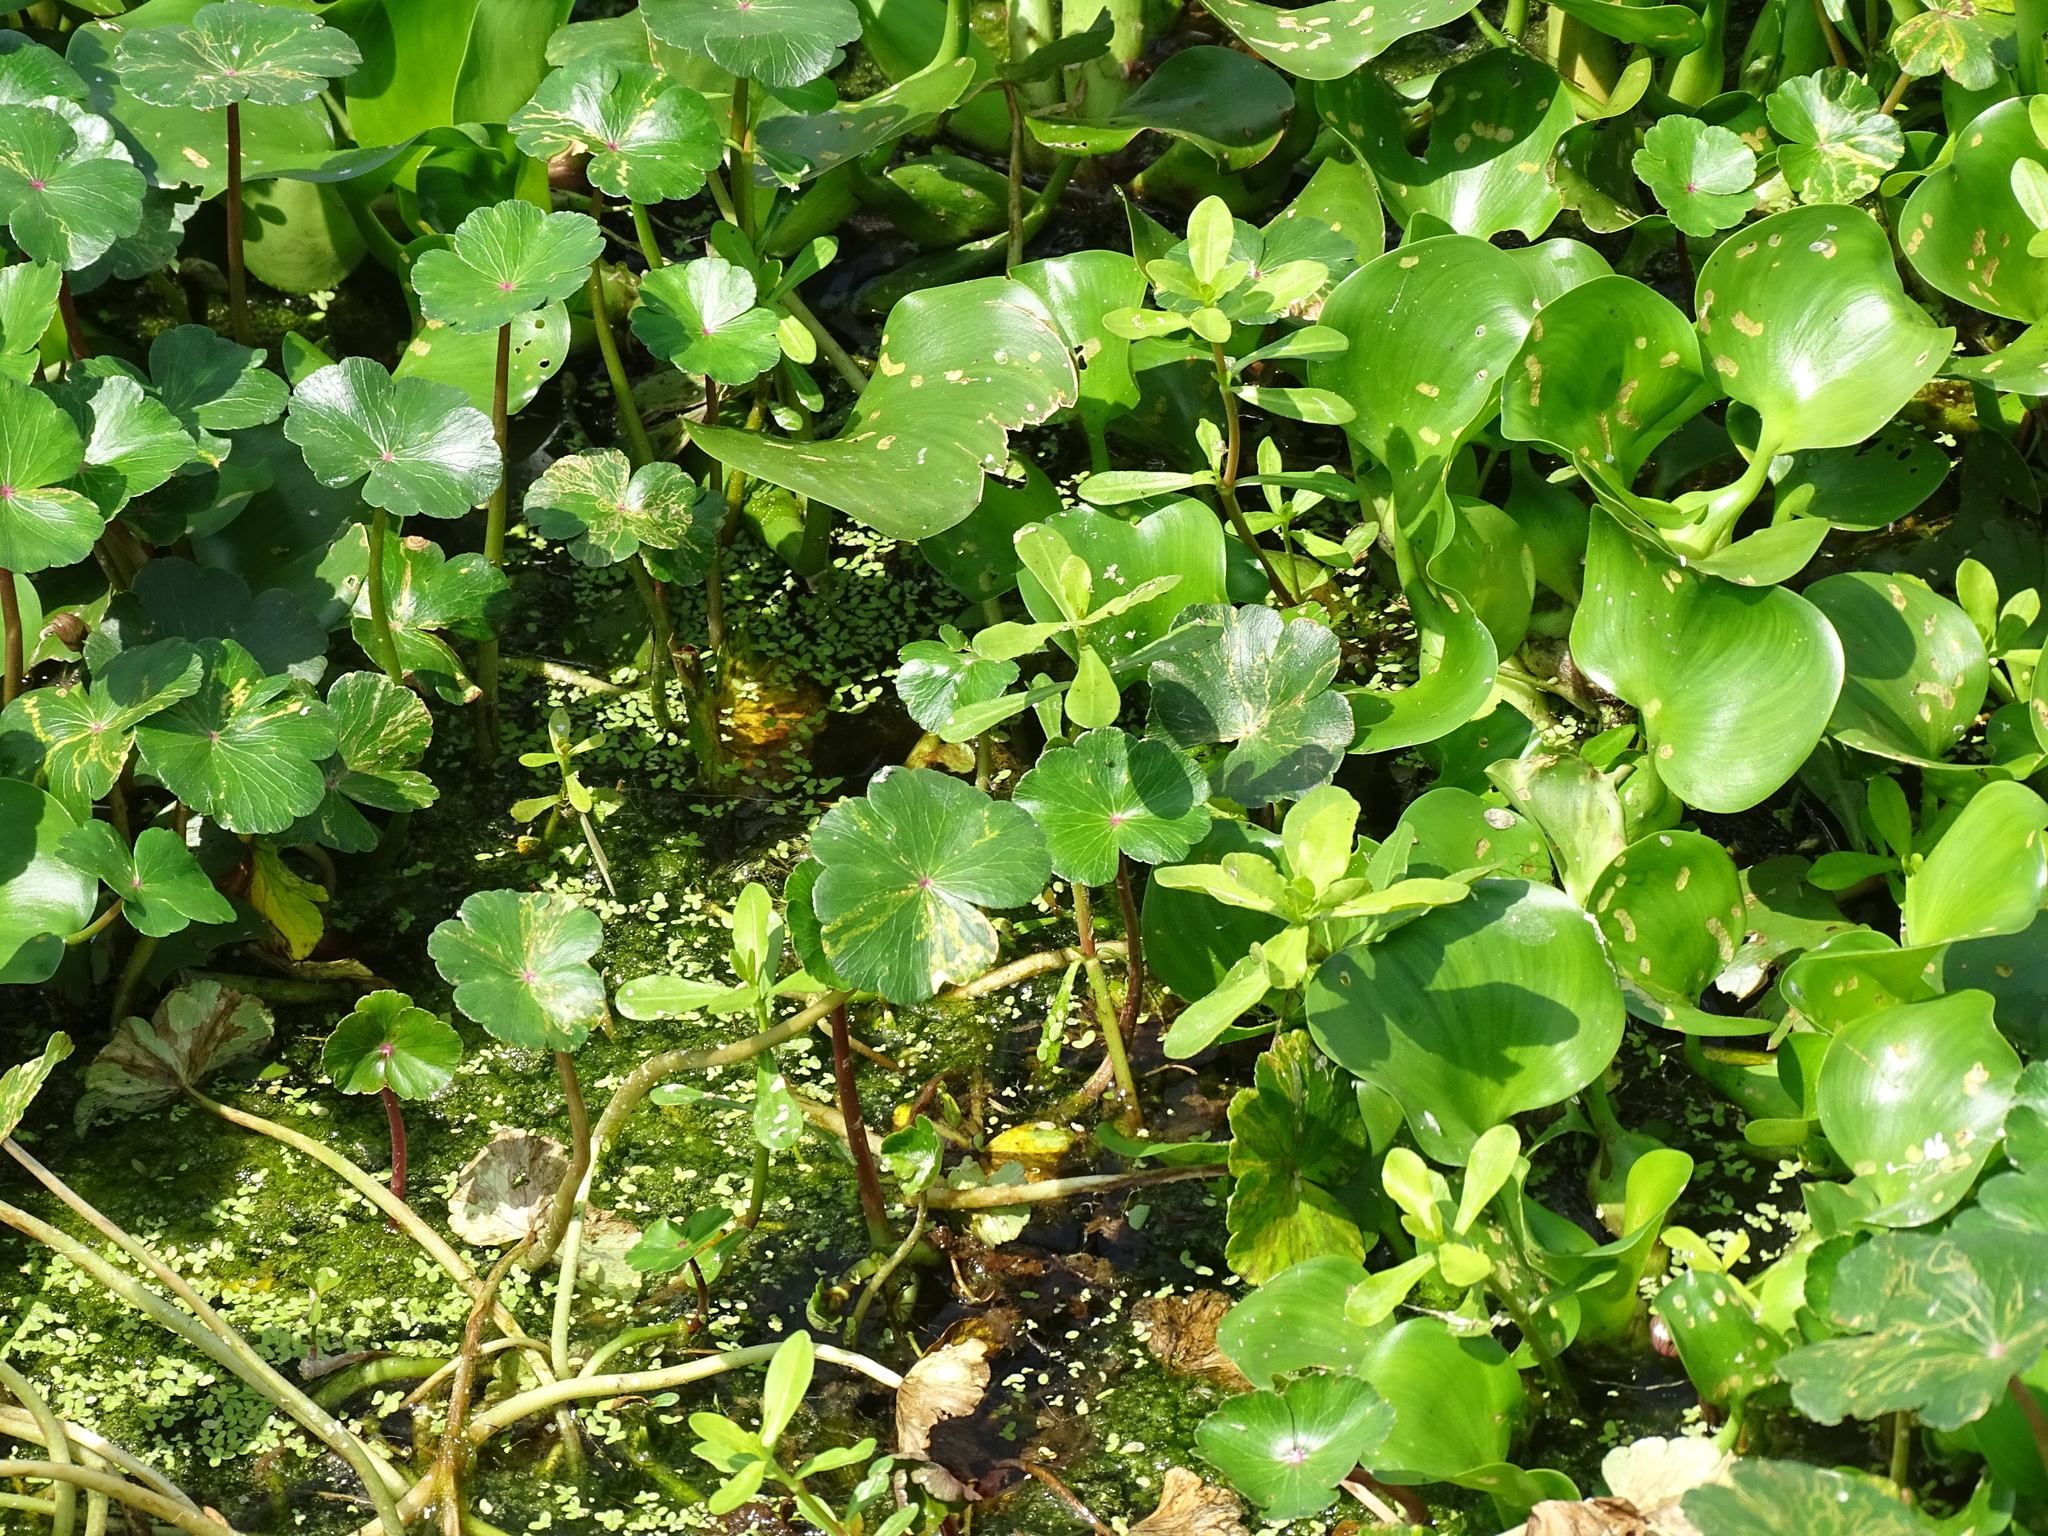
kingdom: Plantae
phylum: Tracheophyta
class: Magnoliopsida
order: Apiales
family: Araliaceae
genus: Hydrocotyle
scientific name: Hydrocotyle ranunculoides
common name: Floating pennywort
